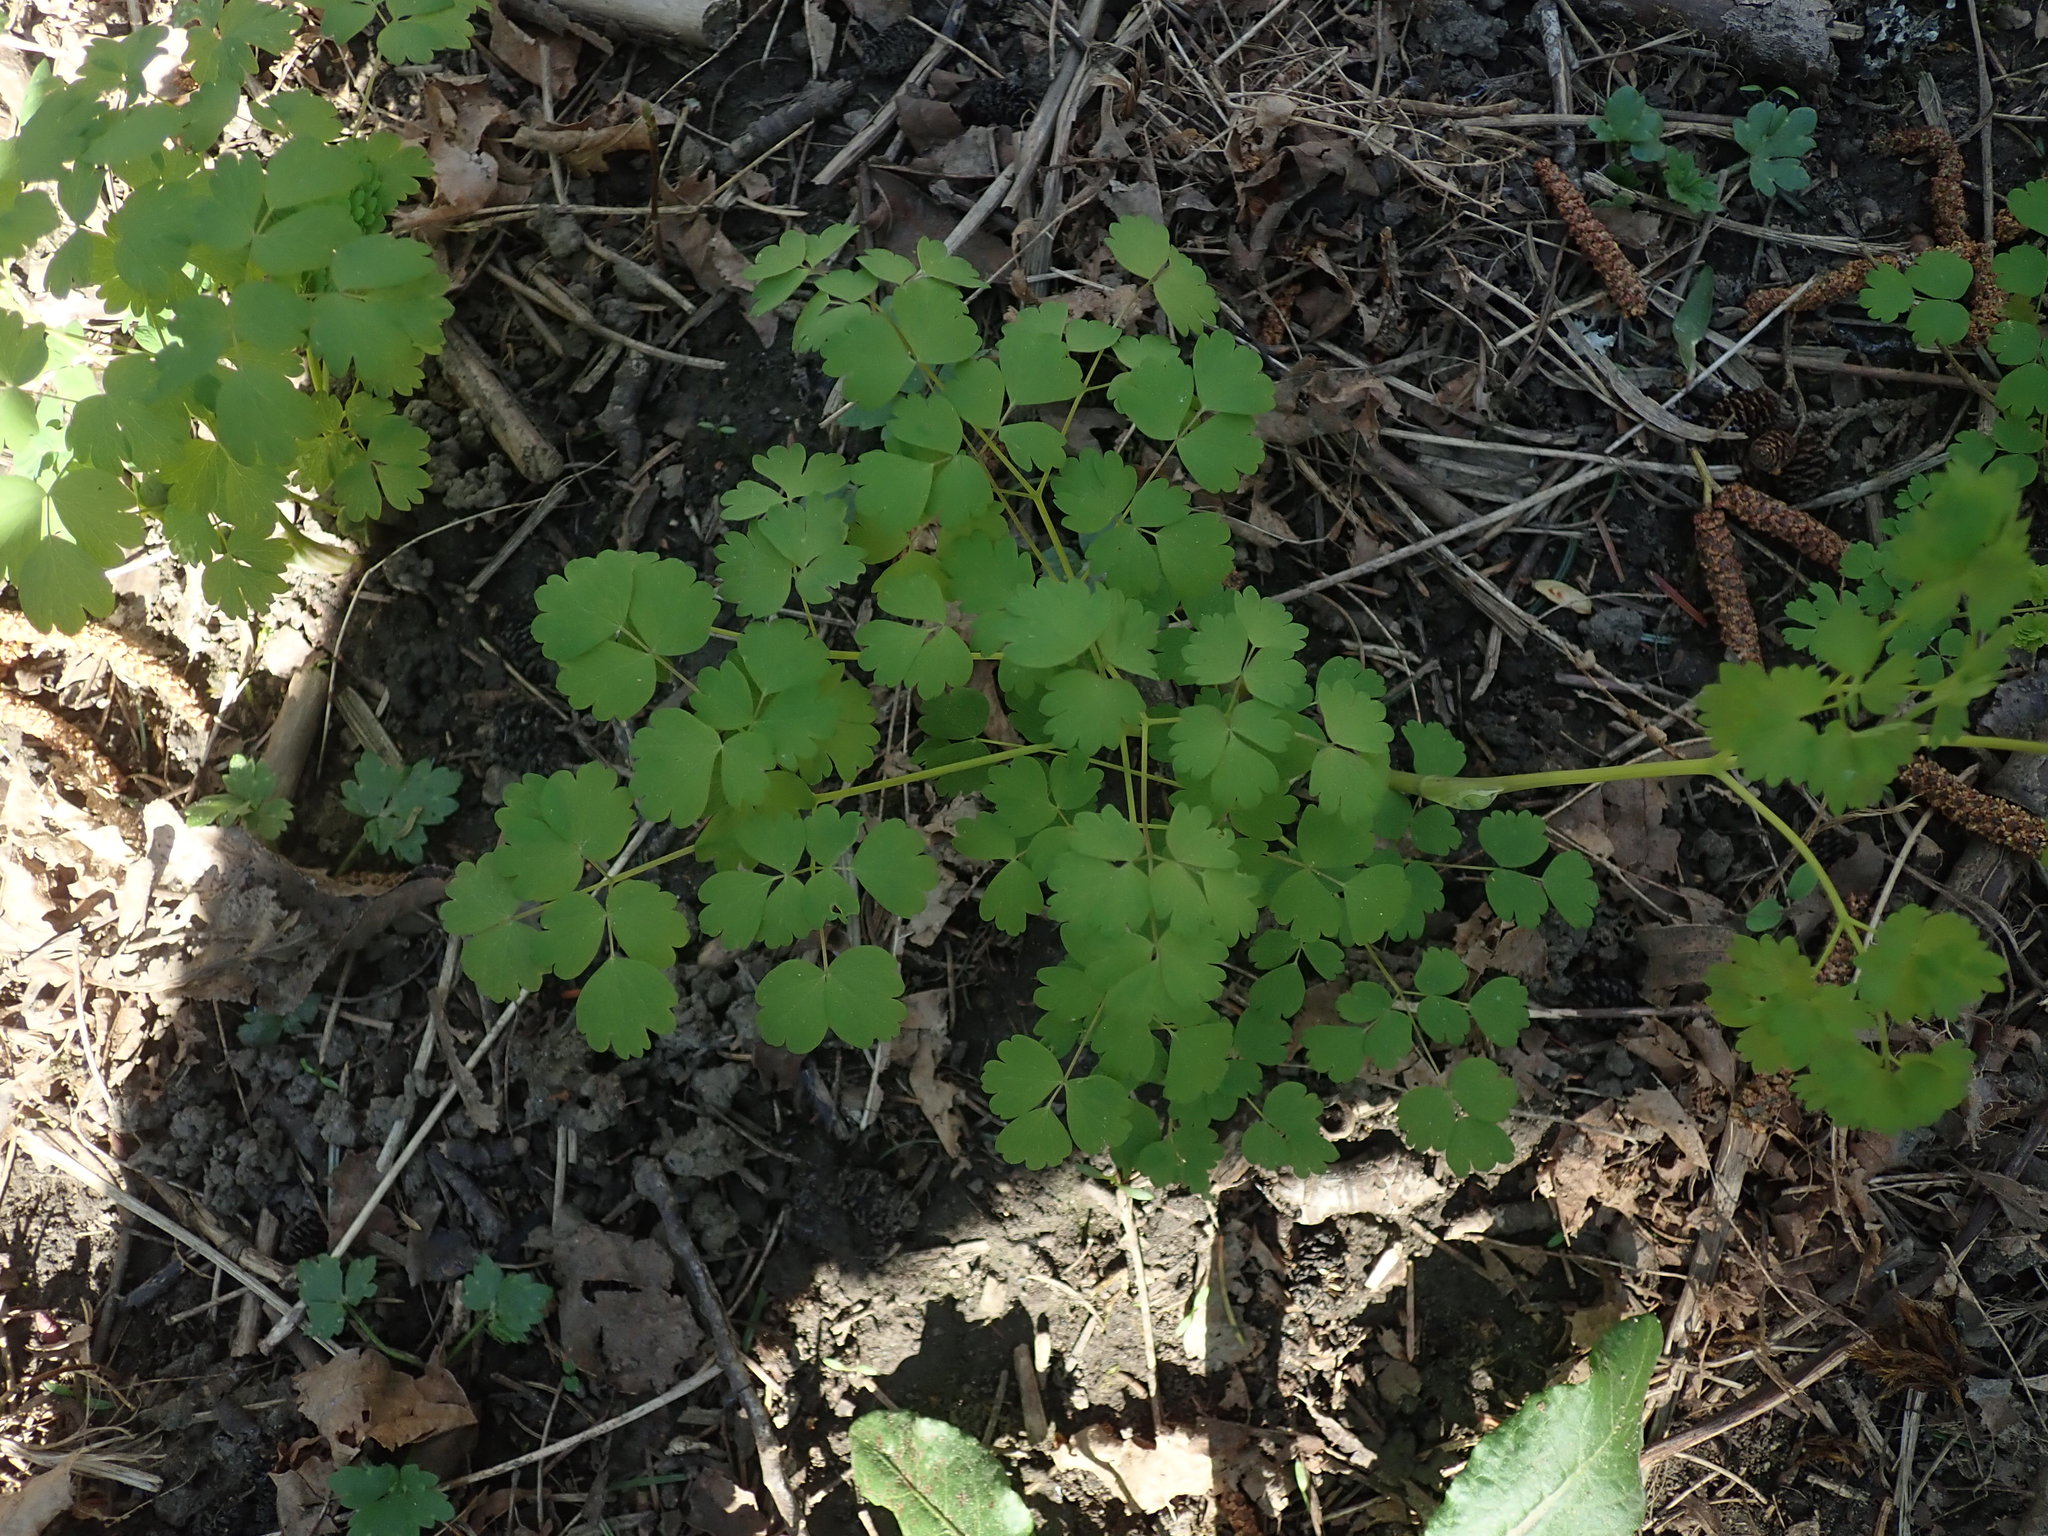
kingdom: Plantae
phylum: Tracheophyta
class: Magnoliopsida
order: Ranunculales
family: Ranunculaceae
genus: Thalictrum
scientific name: Thalictrum occidentale
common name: Western meadow-rue
